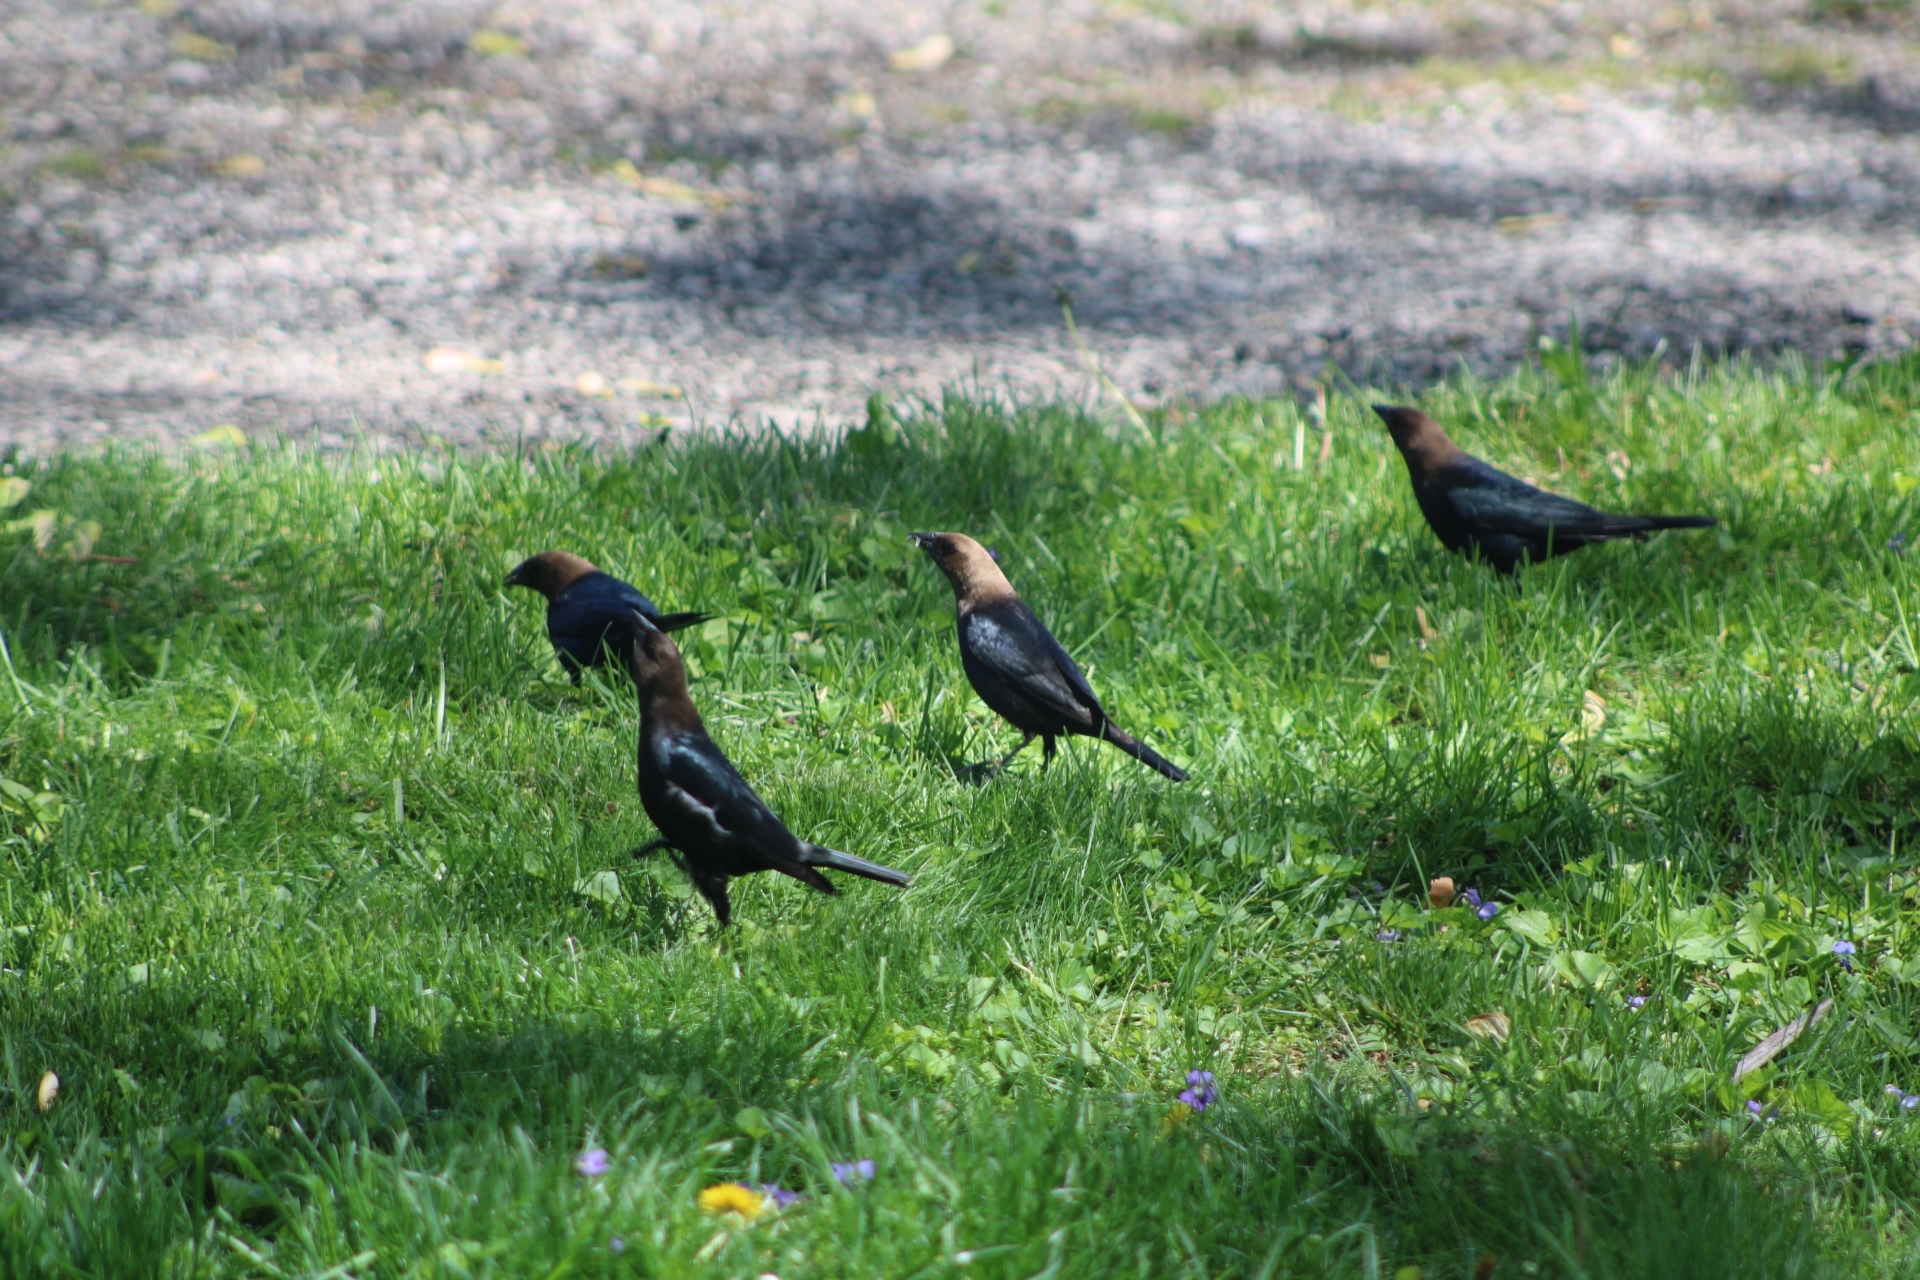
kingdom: Animalia
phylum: Chordata
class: Aves
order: Passeriformes
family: Icteridae
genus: Molothrus
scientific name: Molothrus ater
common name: Brown-headed cowbird
